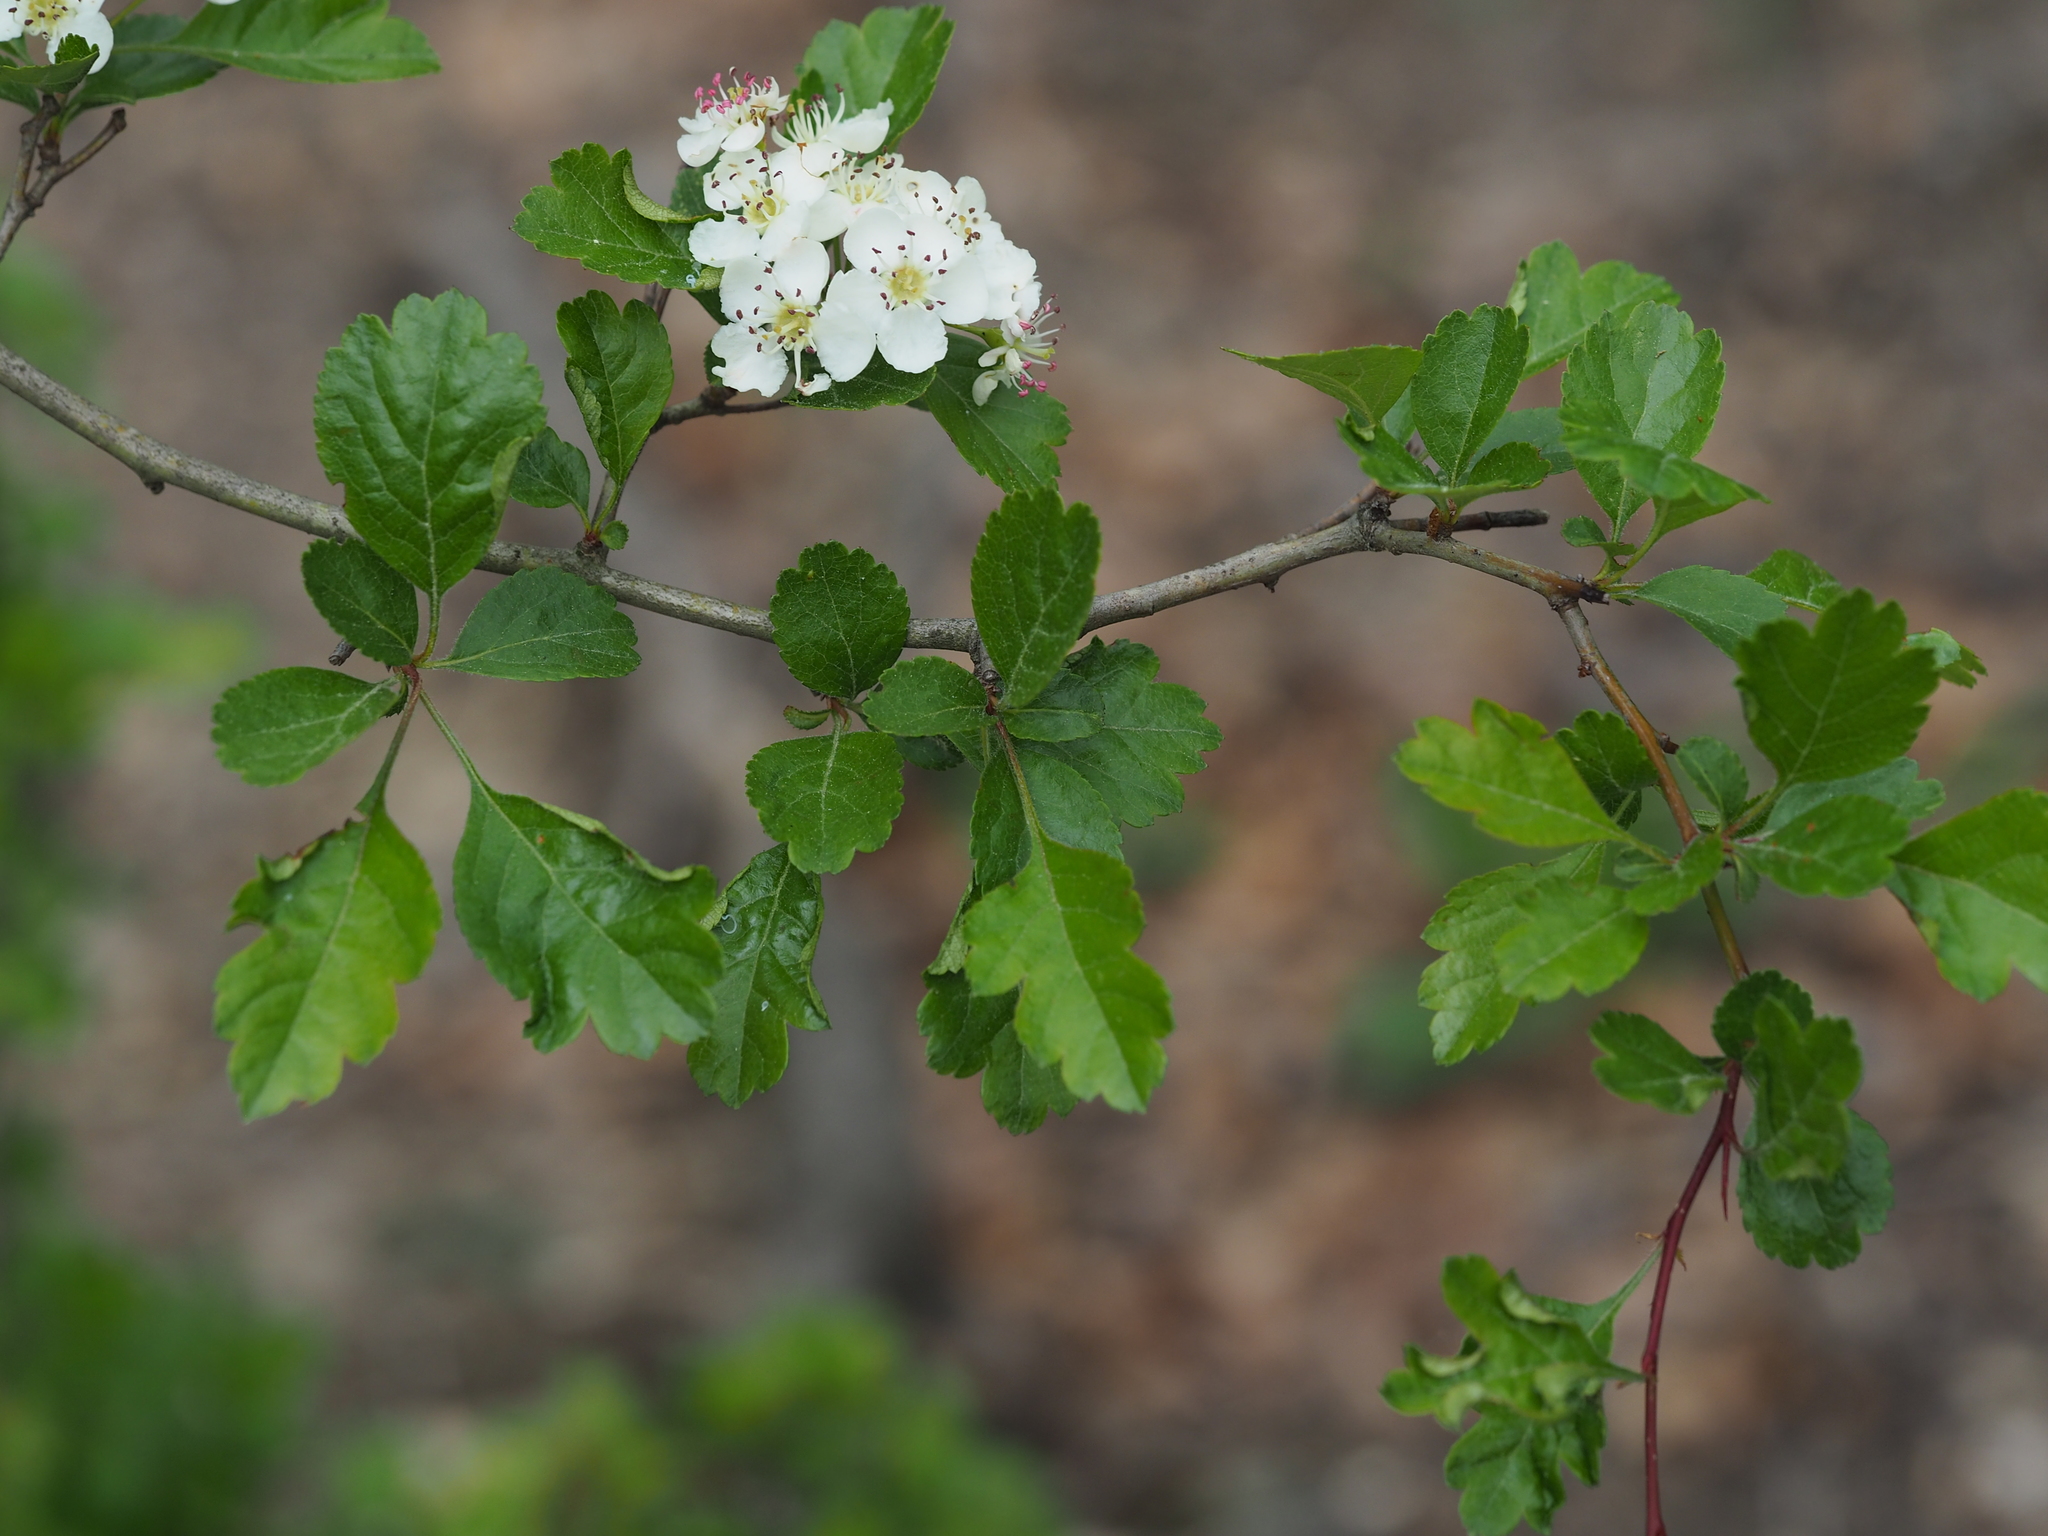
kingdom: Plantae
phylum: Tracheophyta
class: Magnoliopsida
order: Rosales
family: Rosaceae
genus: Crataegus
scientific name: Crataegus laevigata
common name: Midland hawthorn
